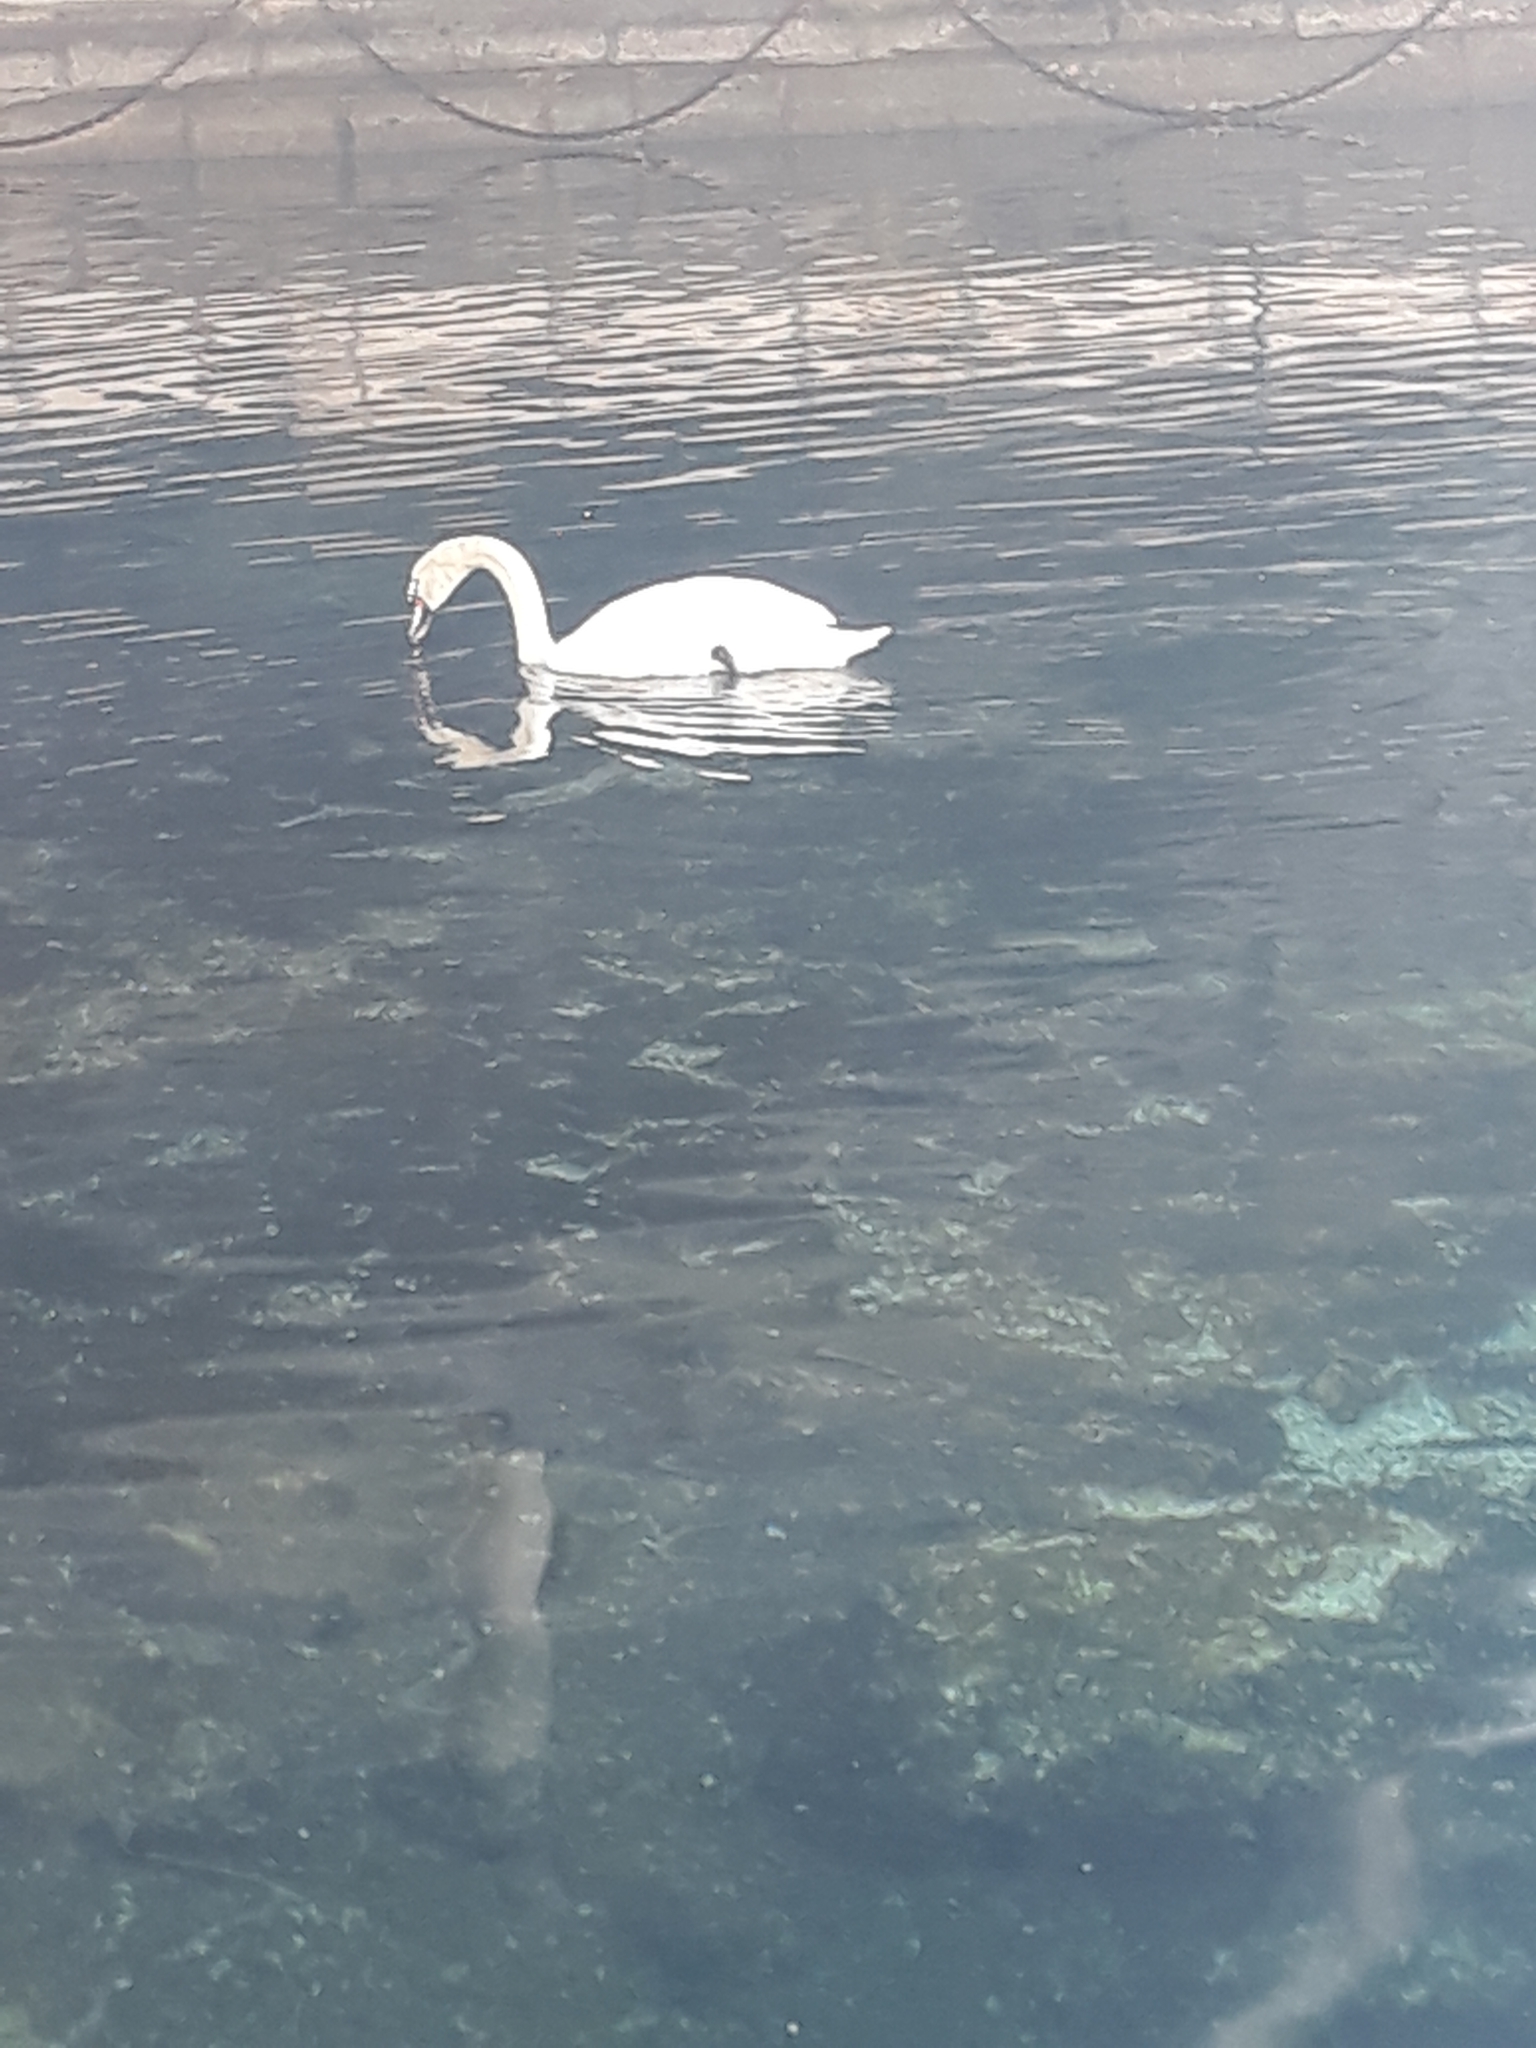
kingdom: Animalia
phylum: Chordata
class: Aves
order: Anseriformes
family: Anatidae
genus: Cygnus
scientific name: Cygnus olor
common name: Mute swan
